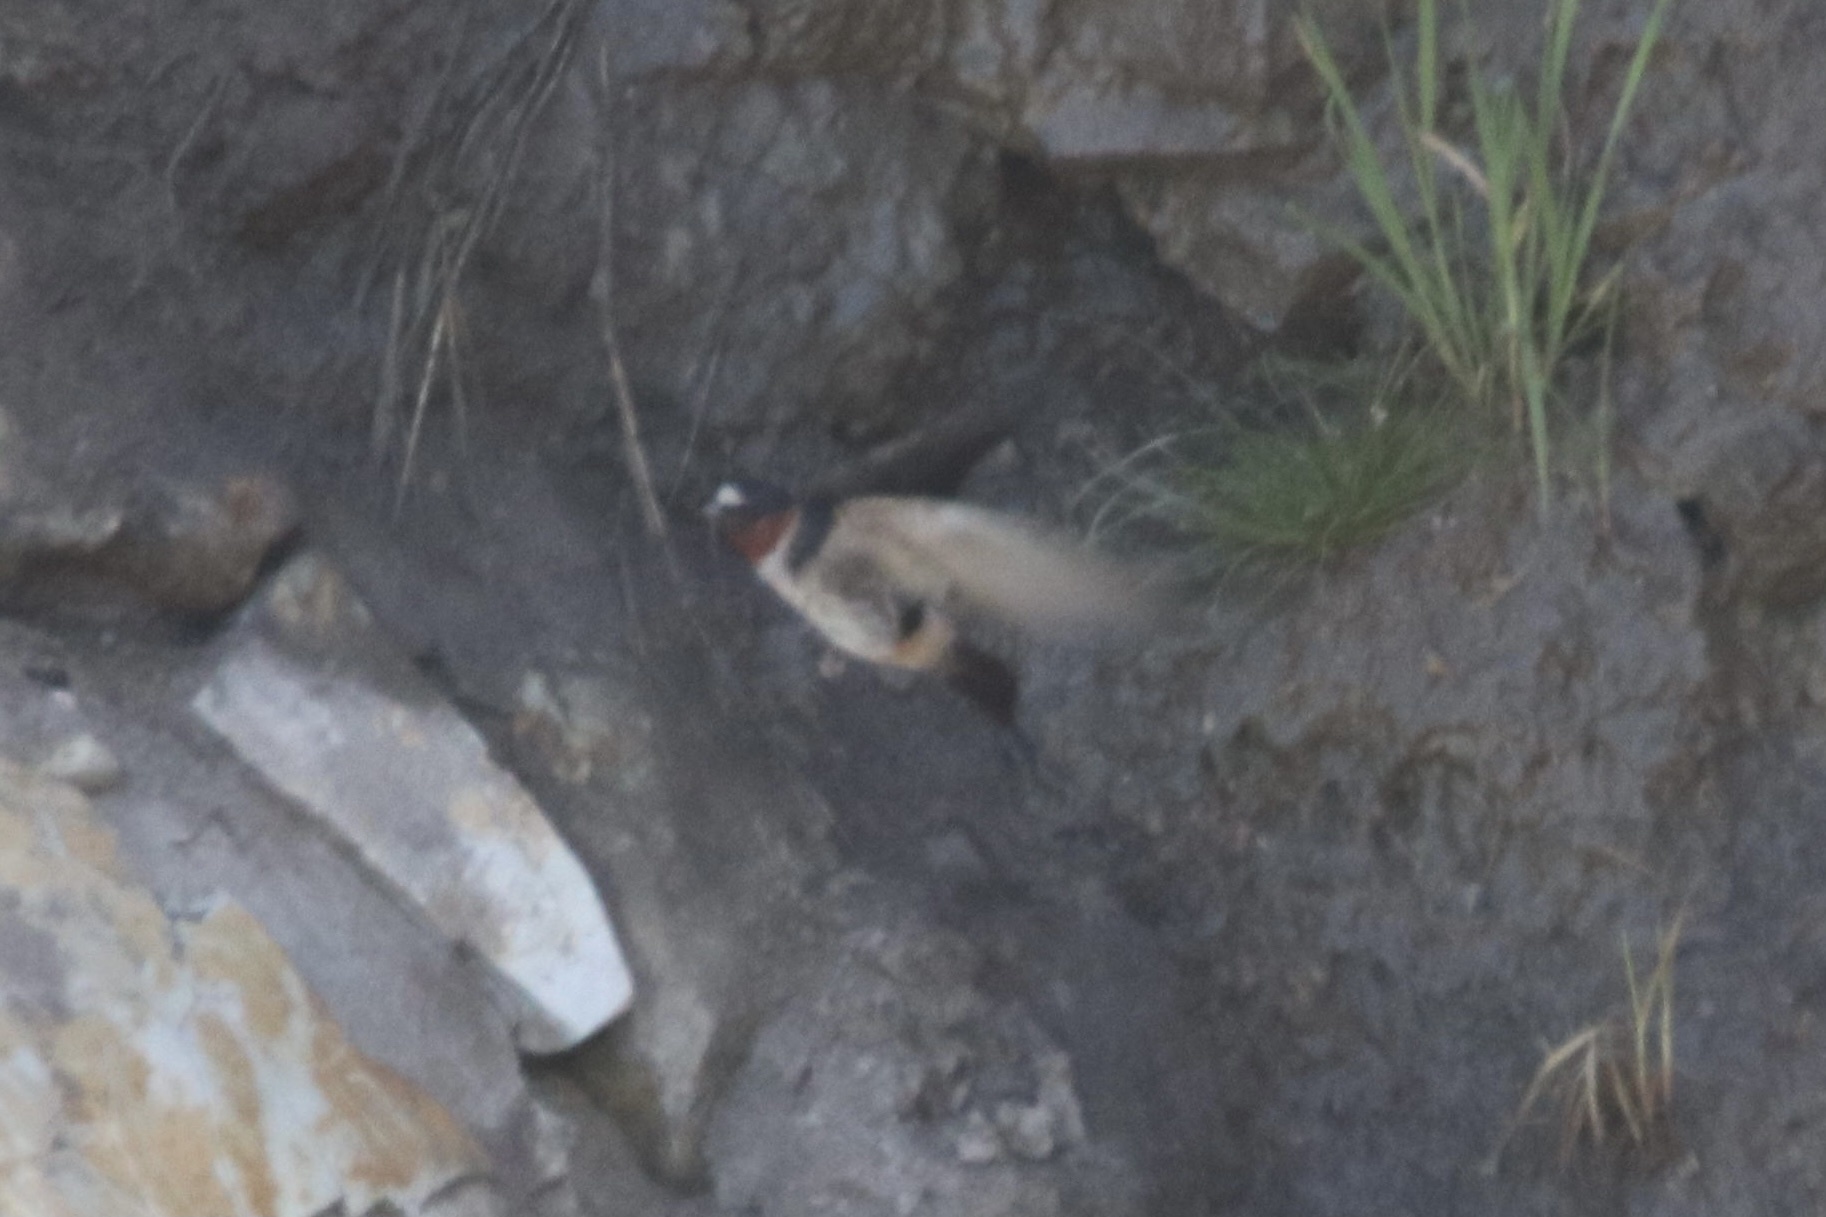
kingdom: Animalia
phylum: Chordata
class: Aves
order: Passeriformes
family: Hirundinidae
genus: Petrochelidon
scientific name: Petrochelidon pyrrhonota
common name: American cliff swallow
